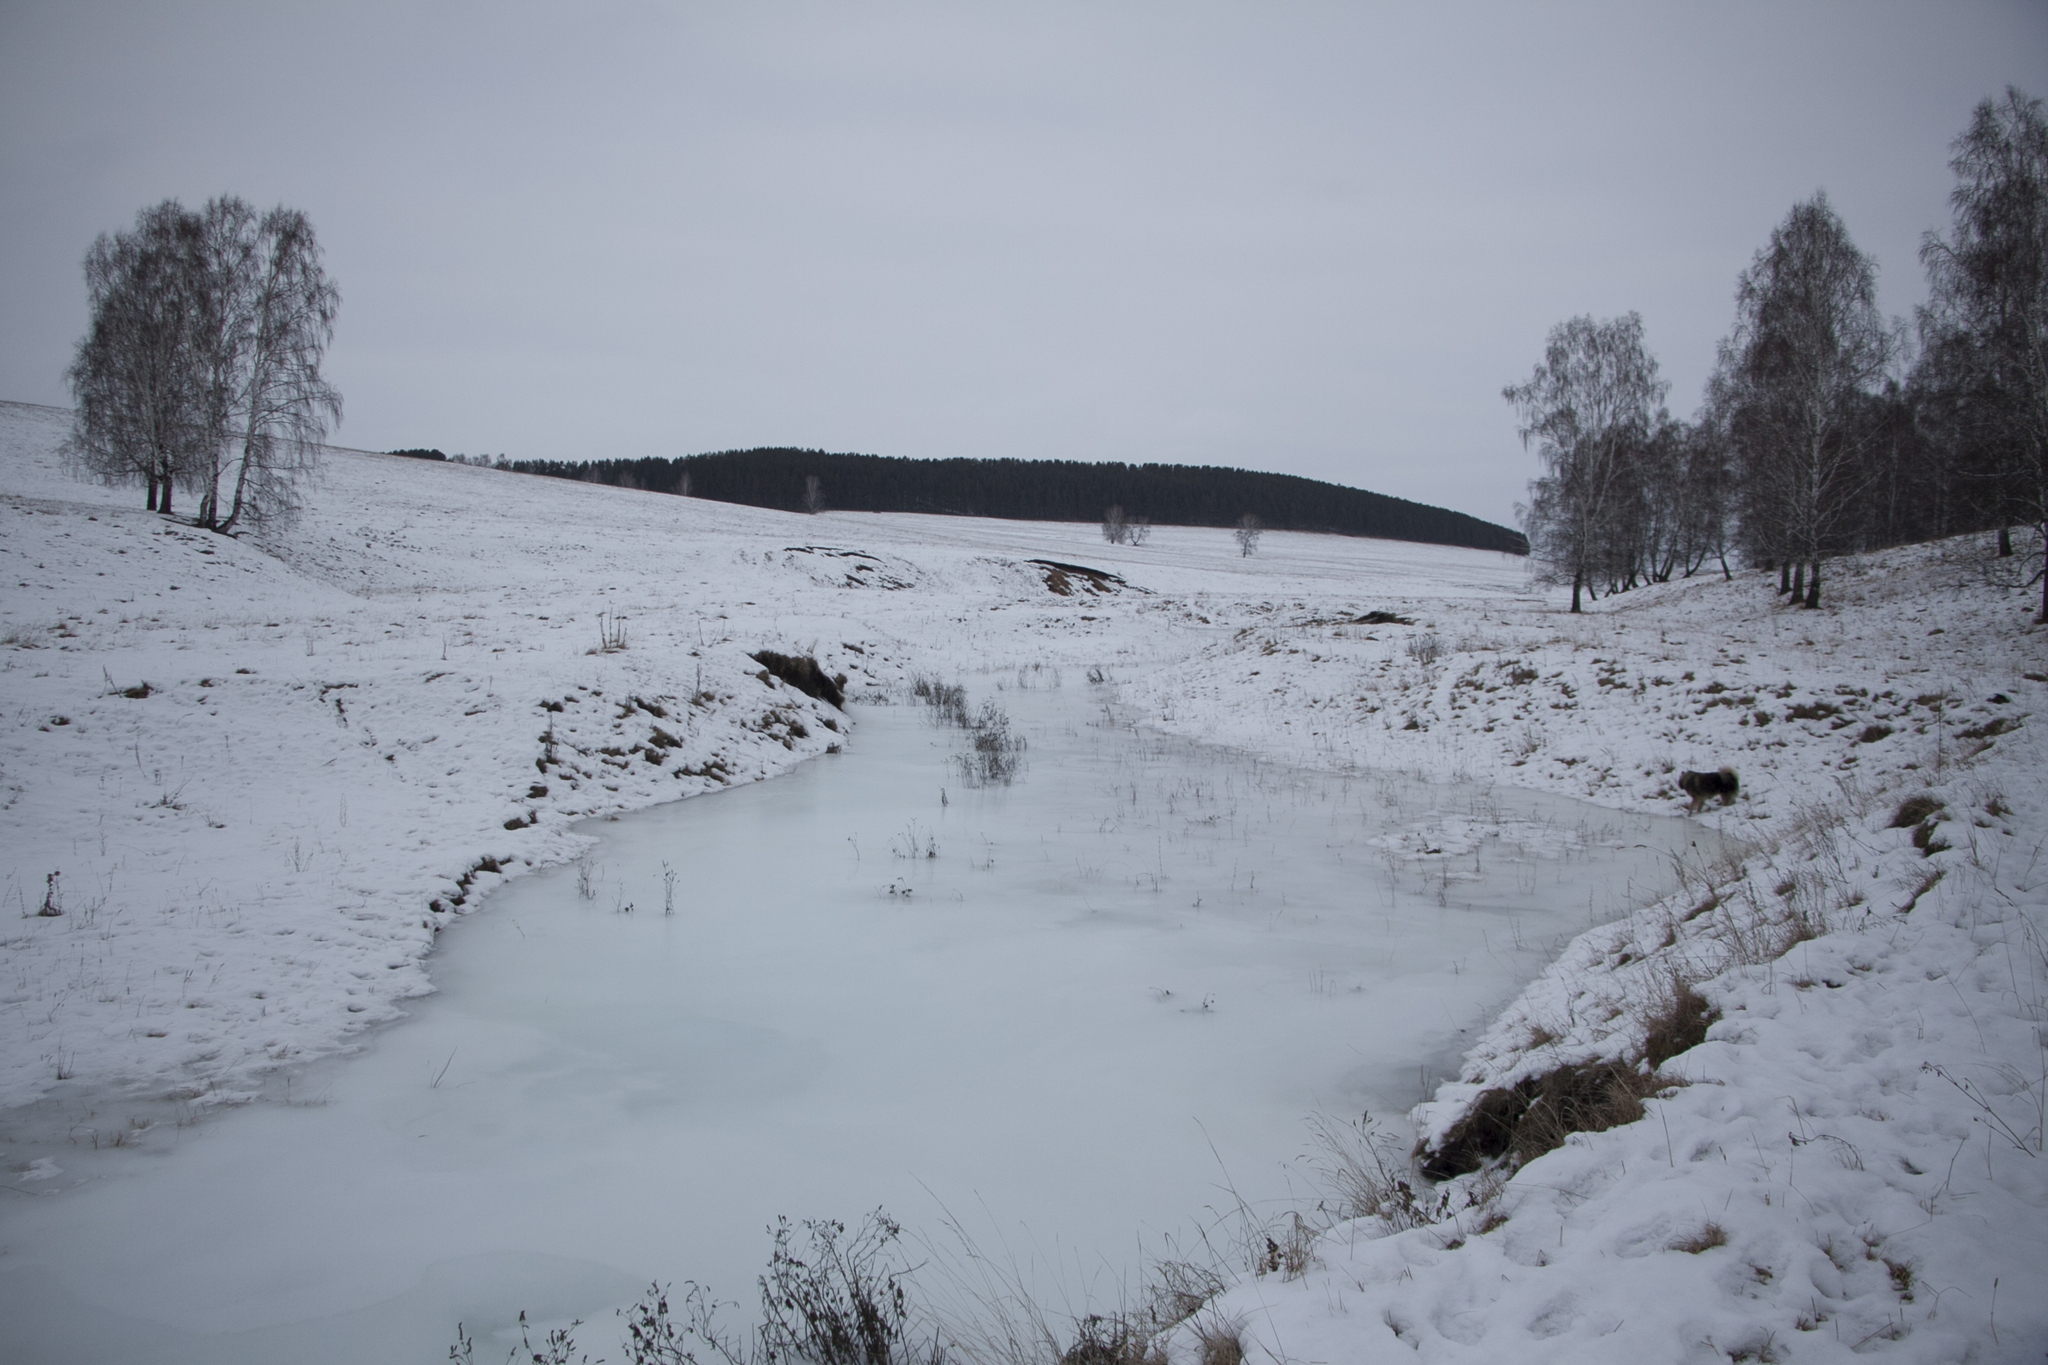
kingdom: Plantae
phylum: Tracheophyta
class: Magnoliopsida
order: Fagales
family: Betulaceae
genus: Betula
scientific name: Betula pendula
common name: Silver birch
